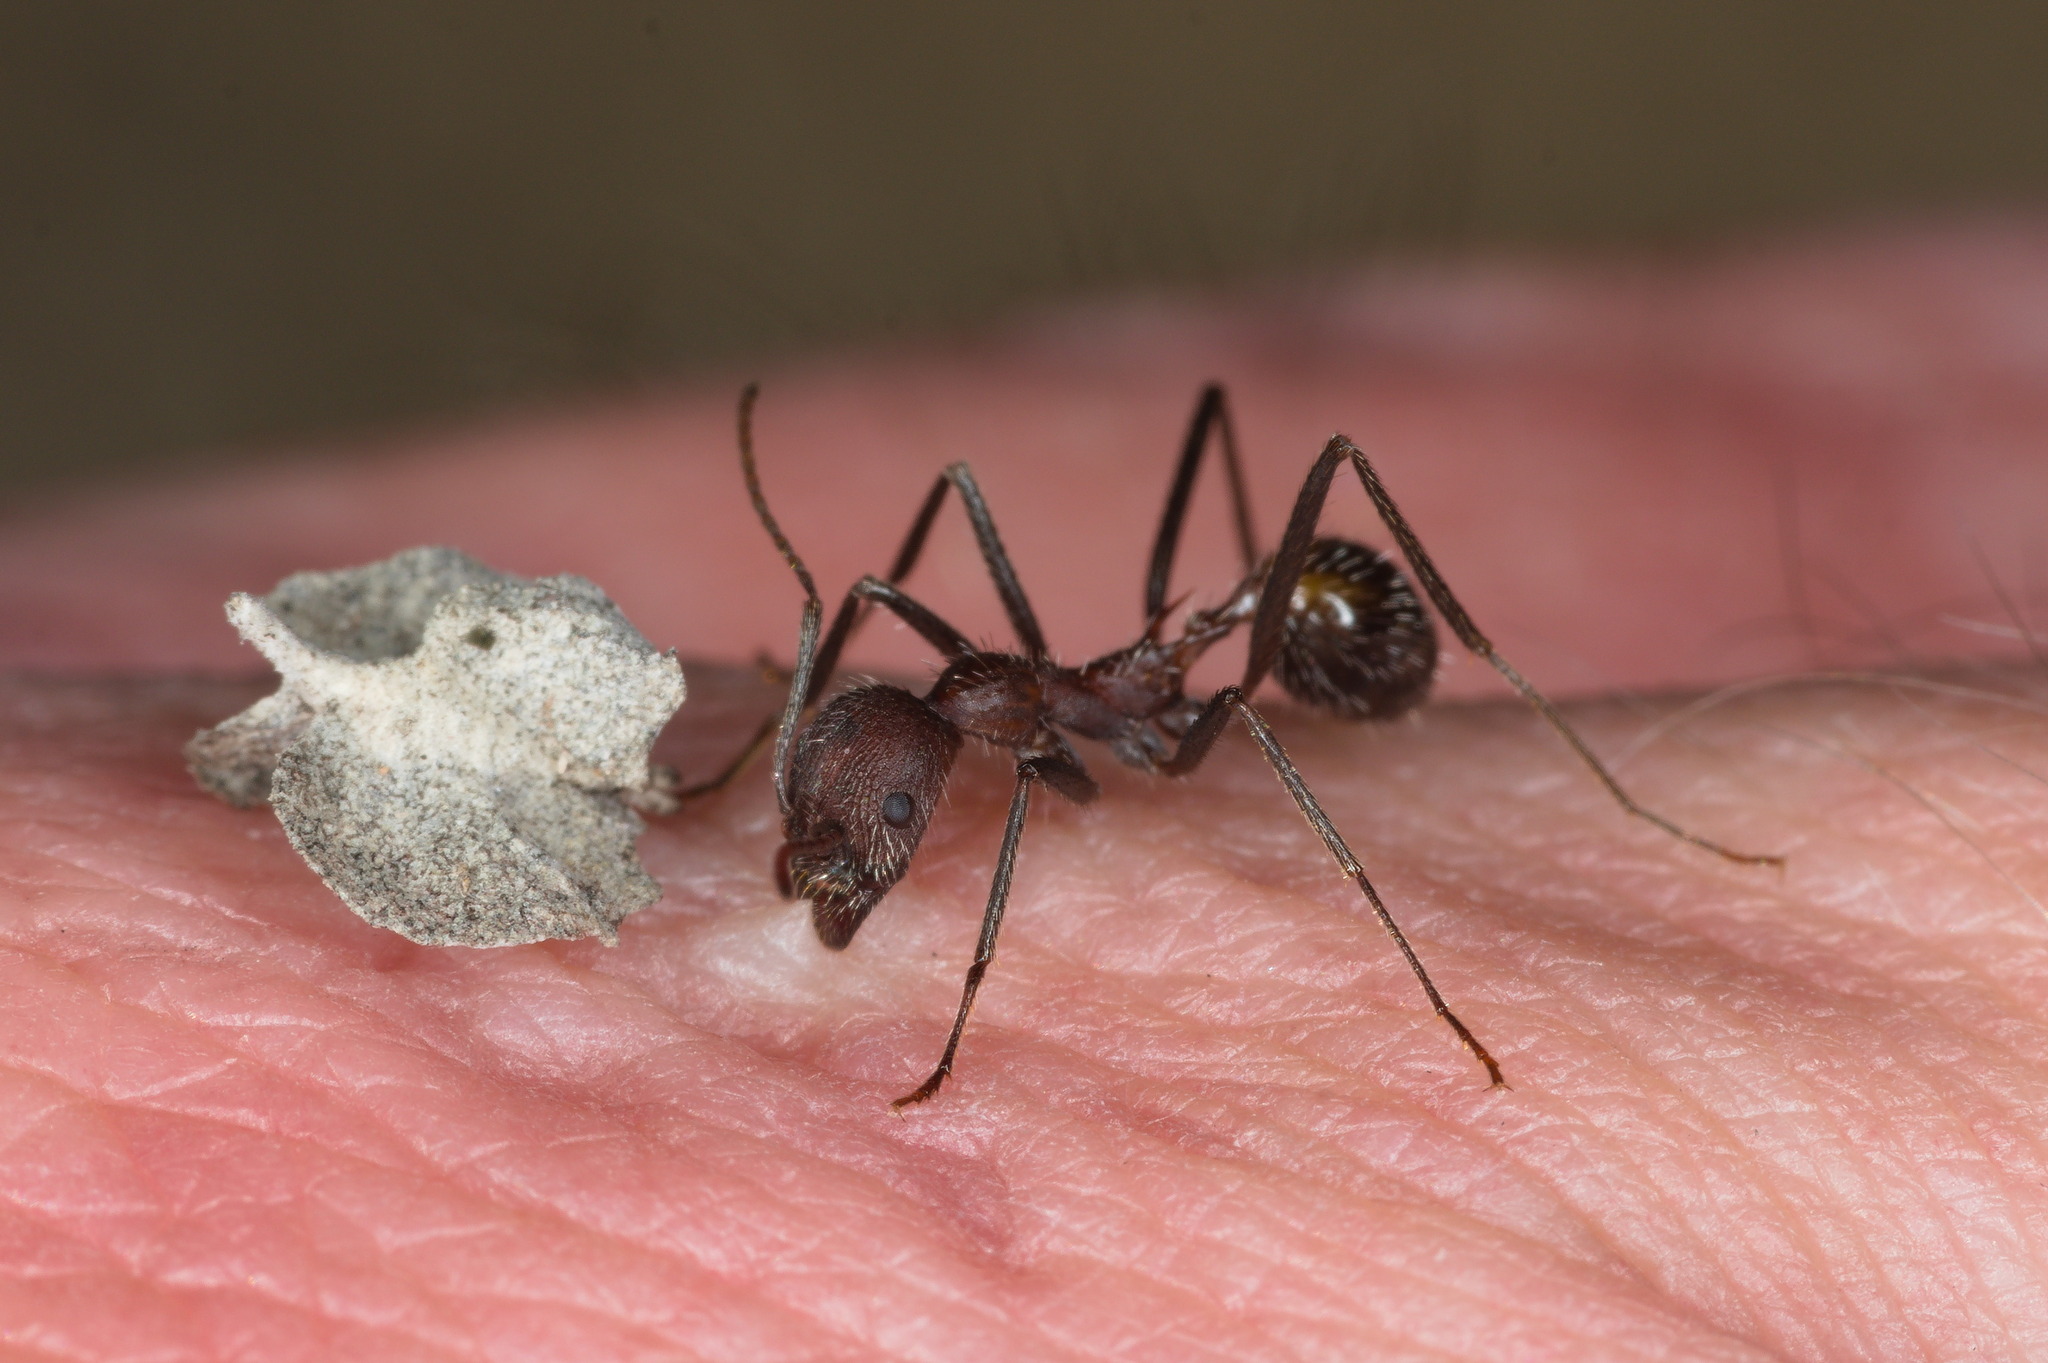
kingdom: Animalia
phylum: Arthropoda
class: Insecta
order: Hymenoptera
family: Formicidae
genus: Novomessor
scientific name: Novomessor albisetosa
